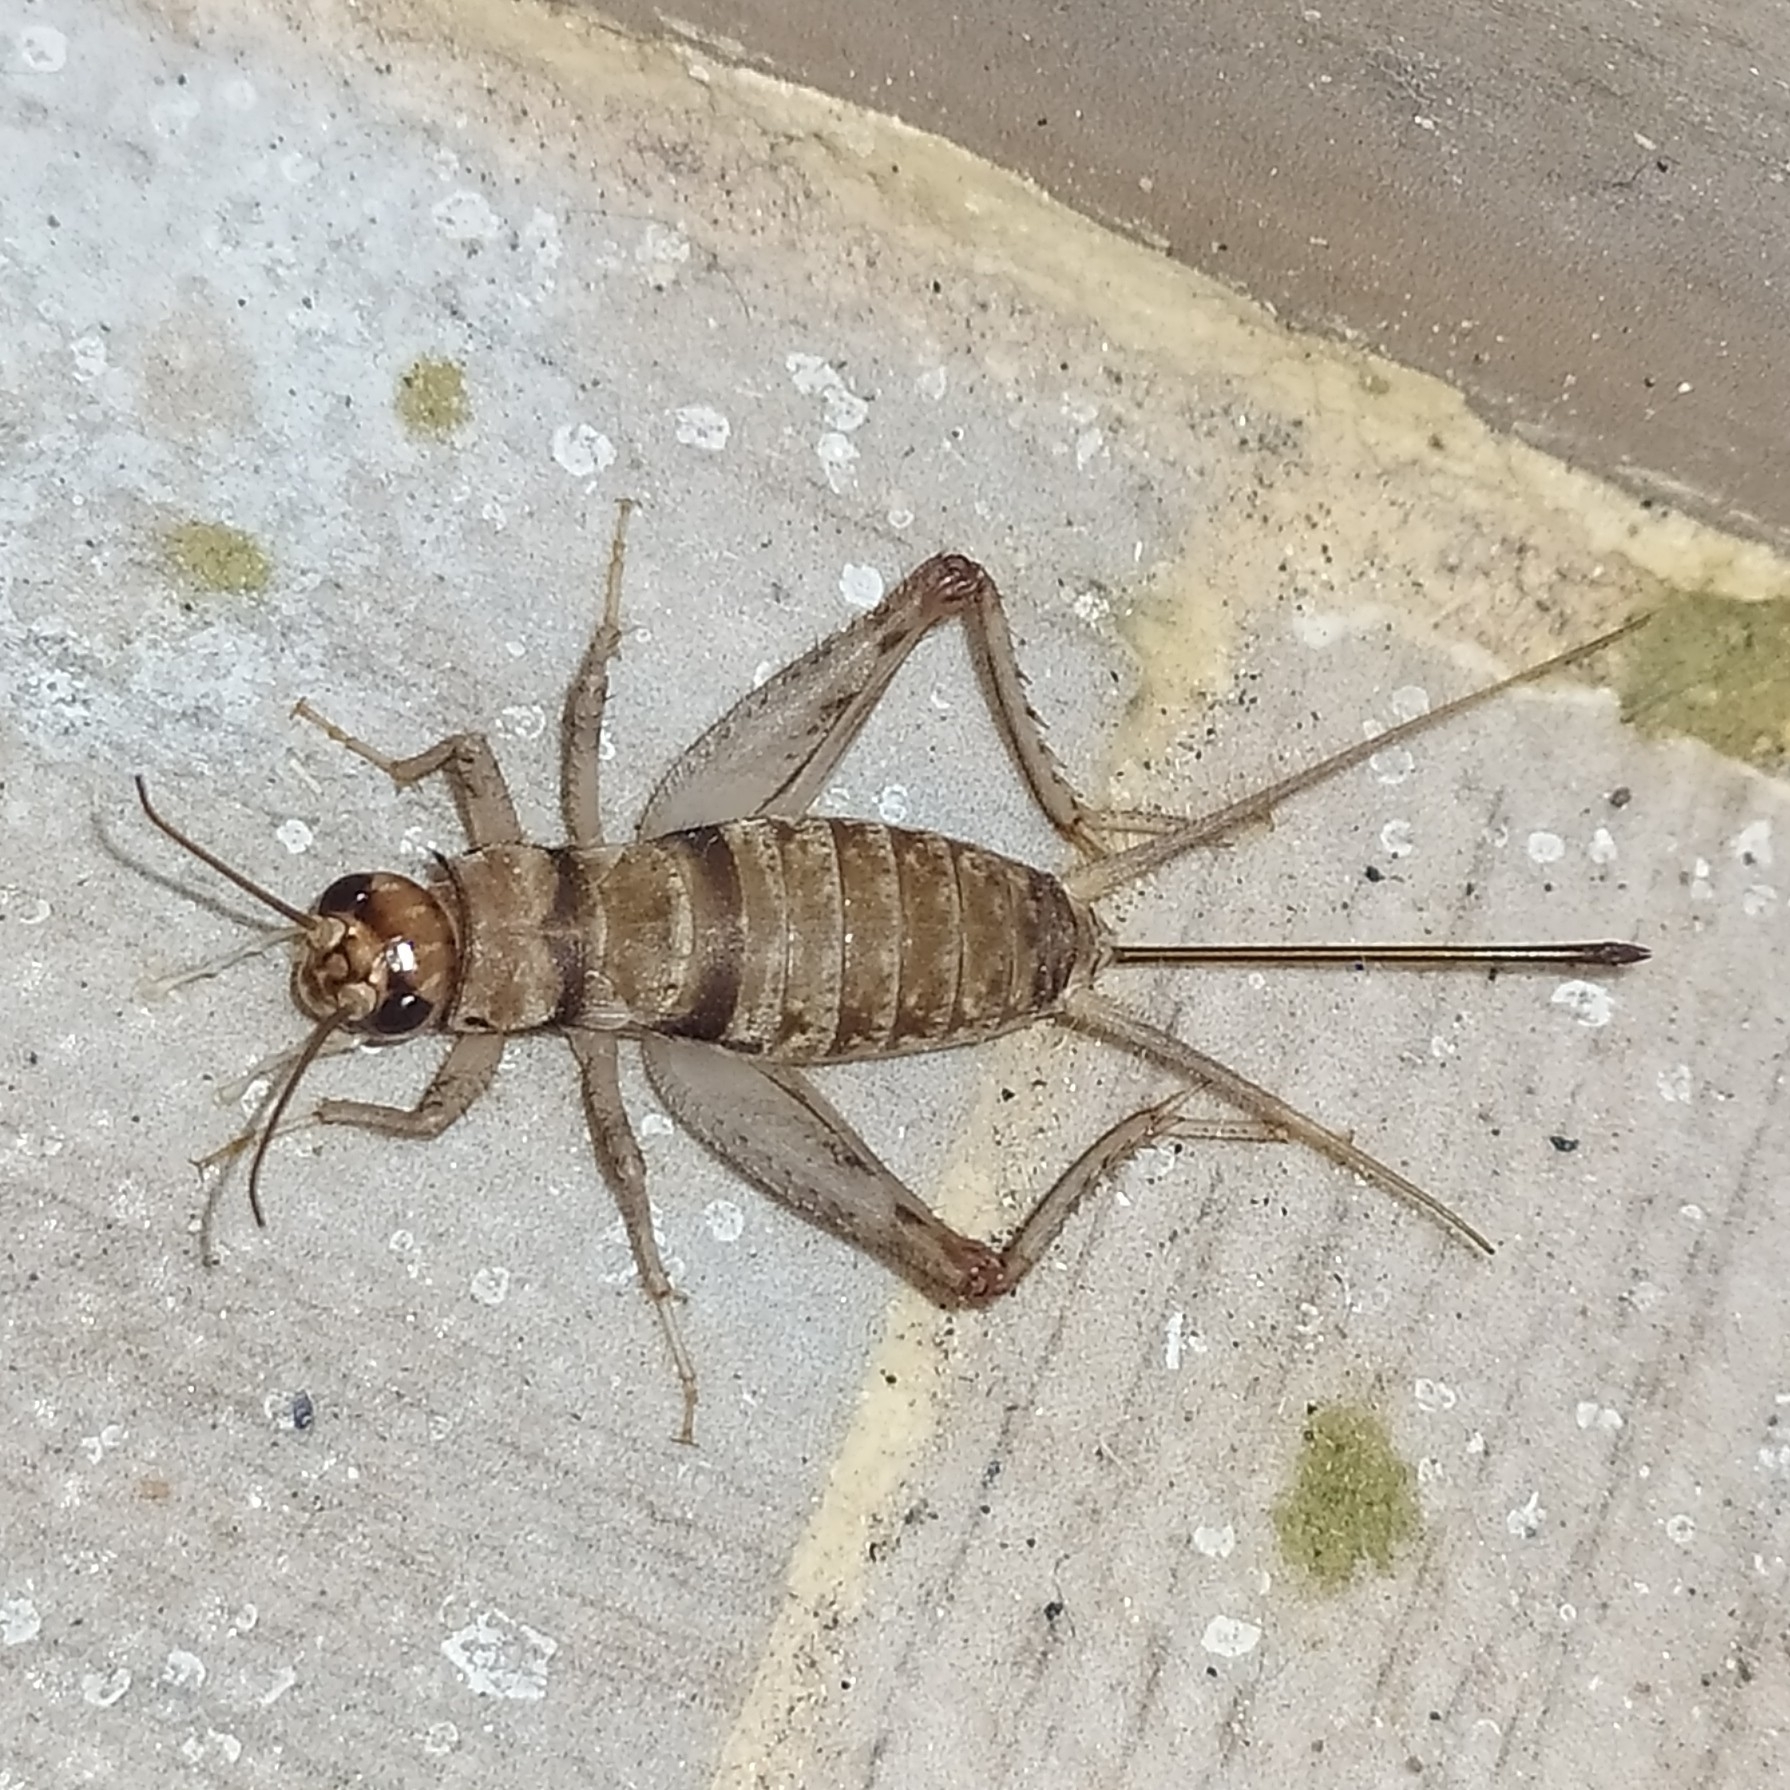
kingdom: Animalia
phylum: Arthropoda
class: Insecta
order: Orthoptera
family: Gryllidae
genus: Gryllodes
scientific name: Gryllodes sigillatus
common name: Tropical house cricket
